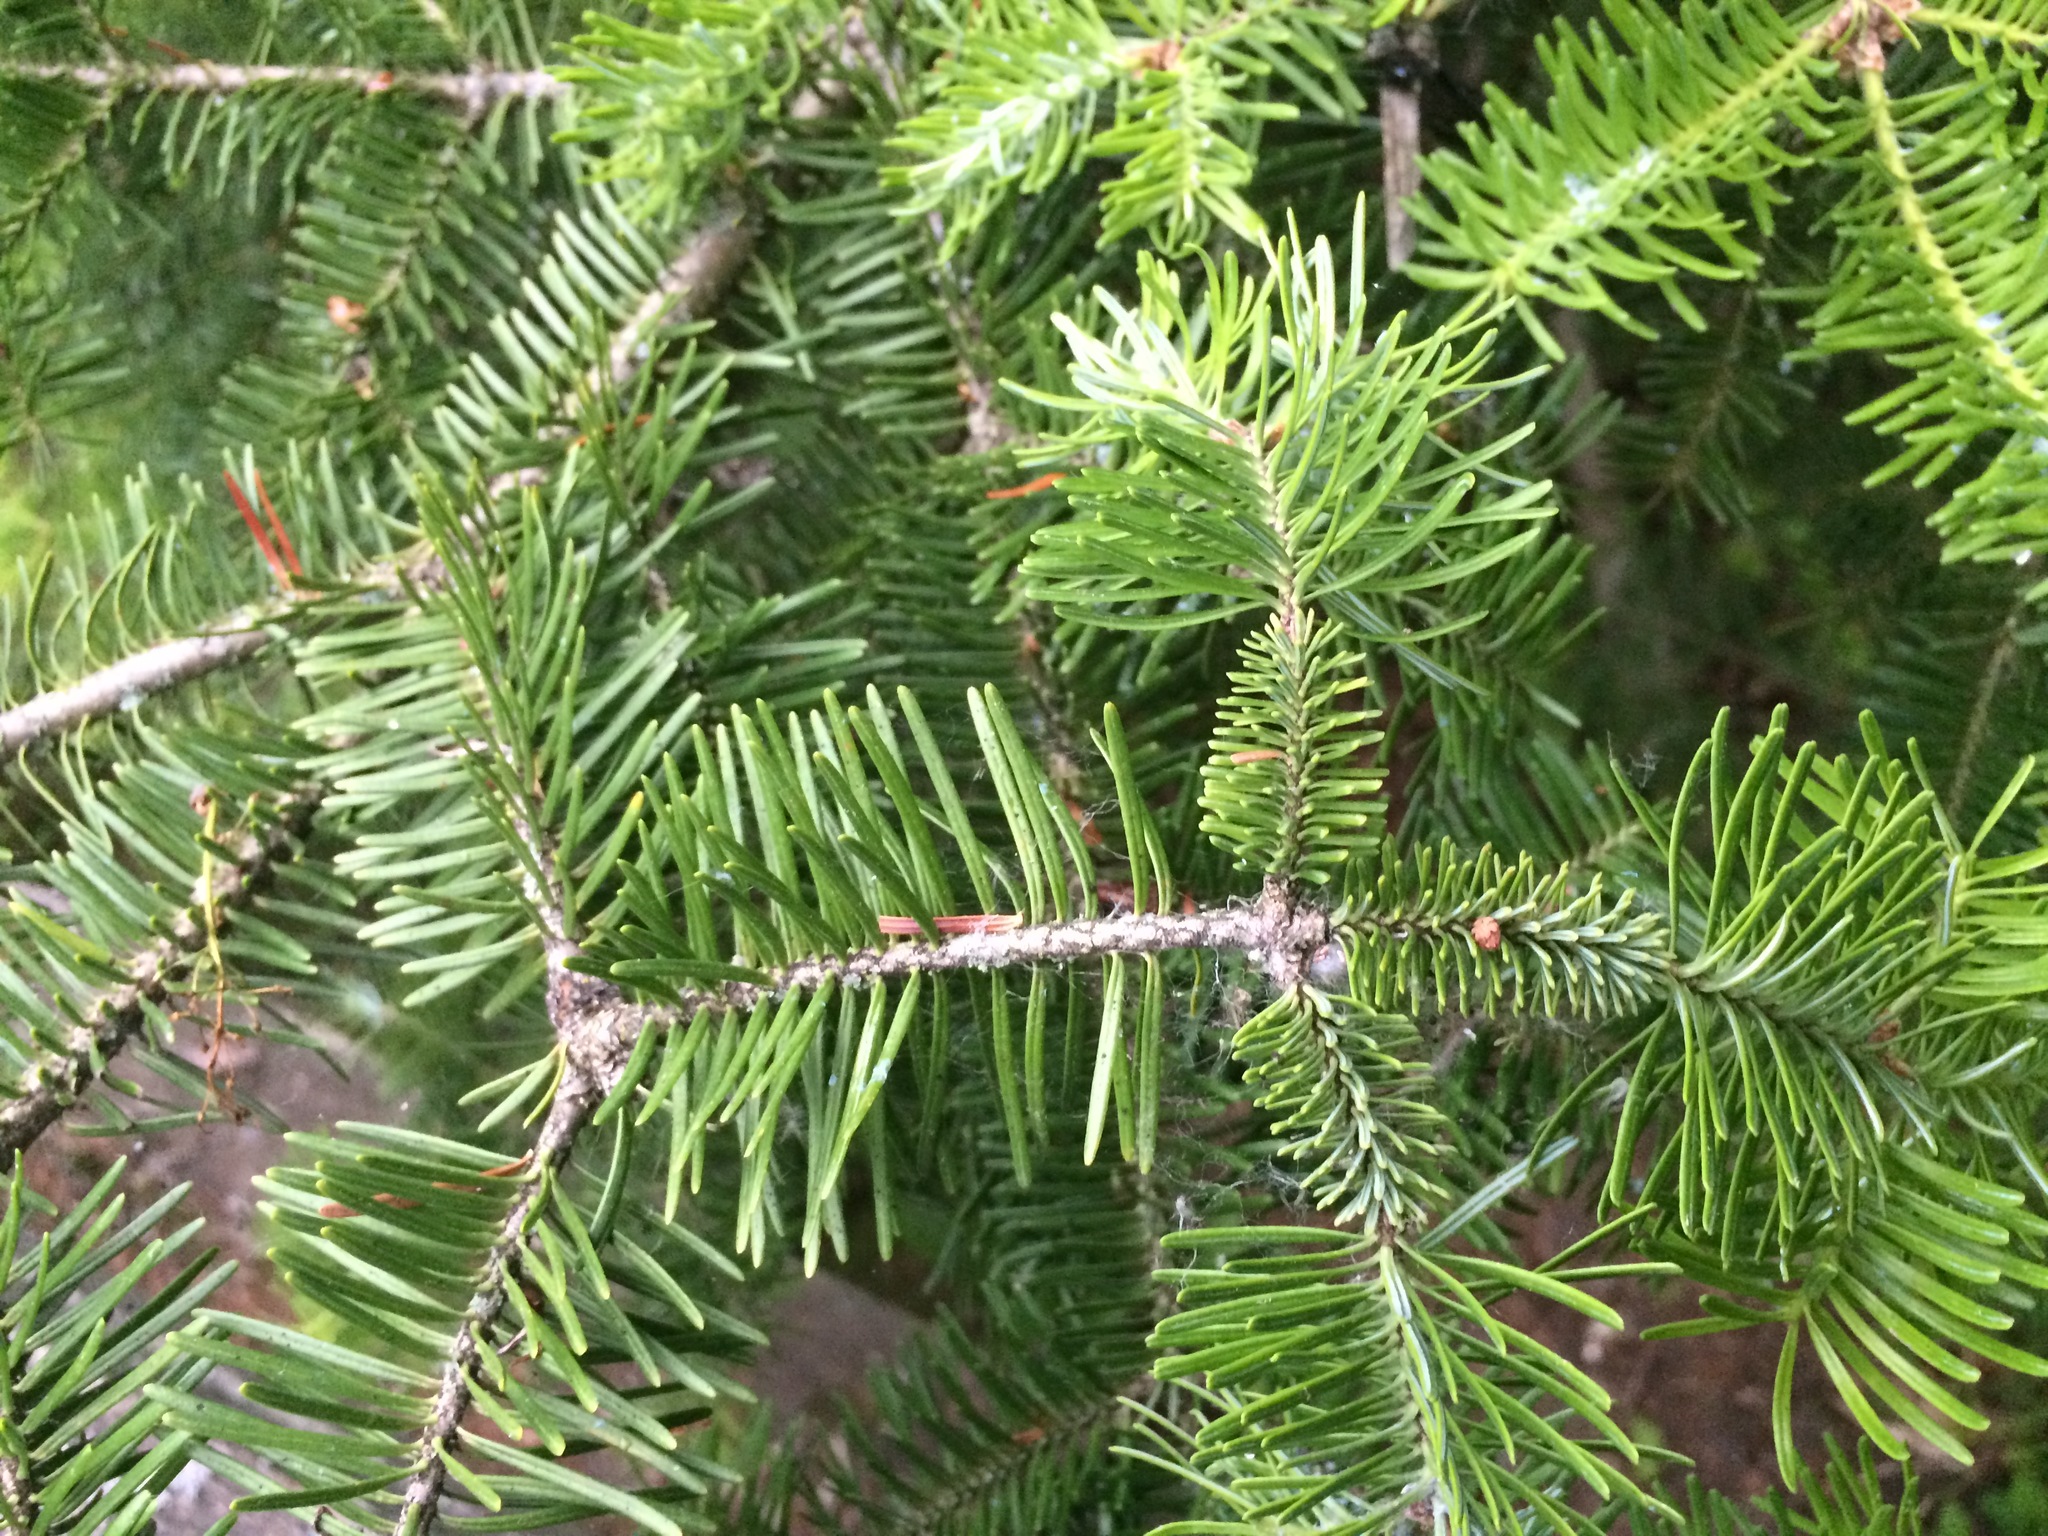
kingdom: Plantae
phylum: Tracheophyta
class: Pinopsida
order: Pinales
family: Pinaceae
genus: Abies
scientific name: Abies balsamea
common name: Balsam fir
